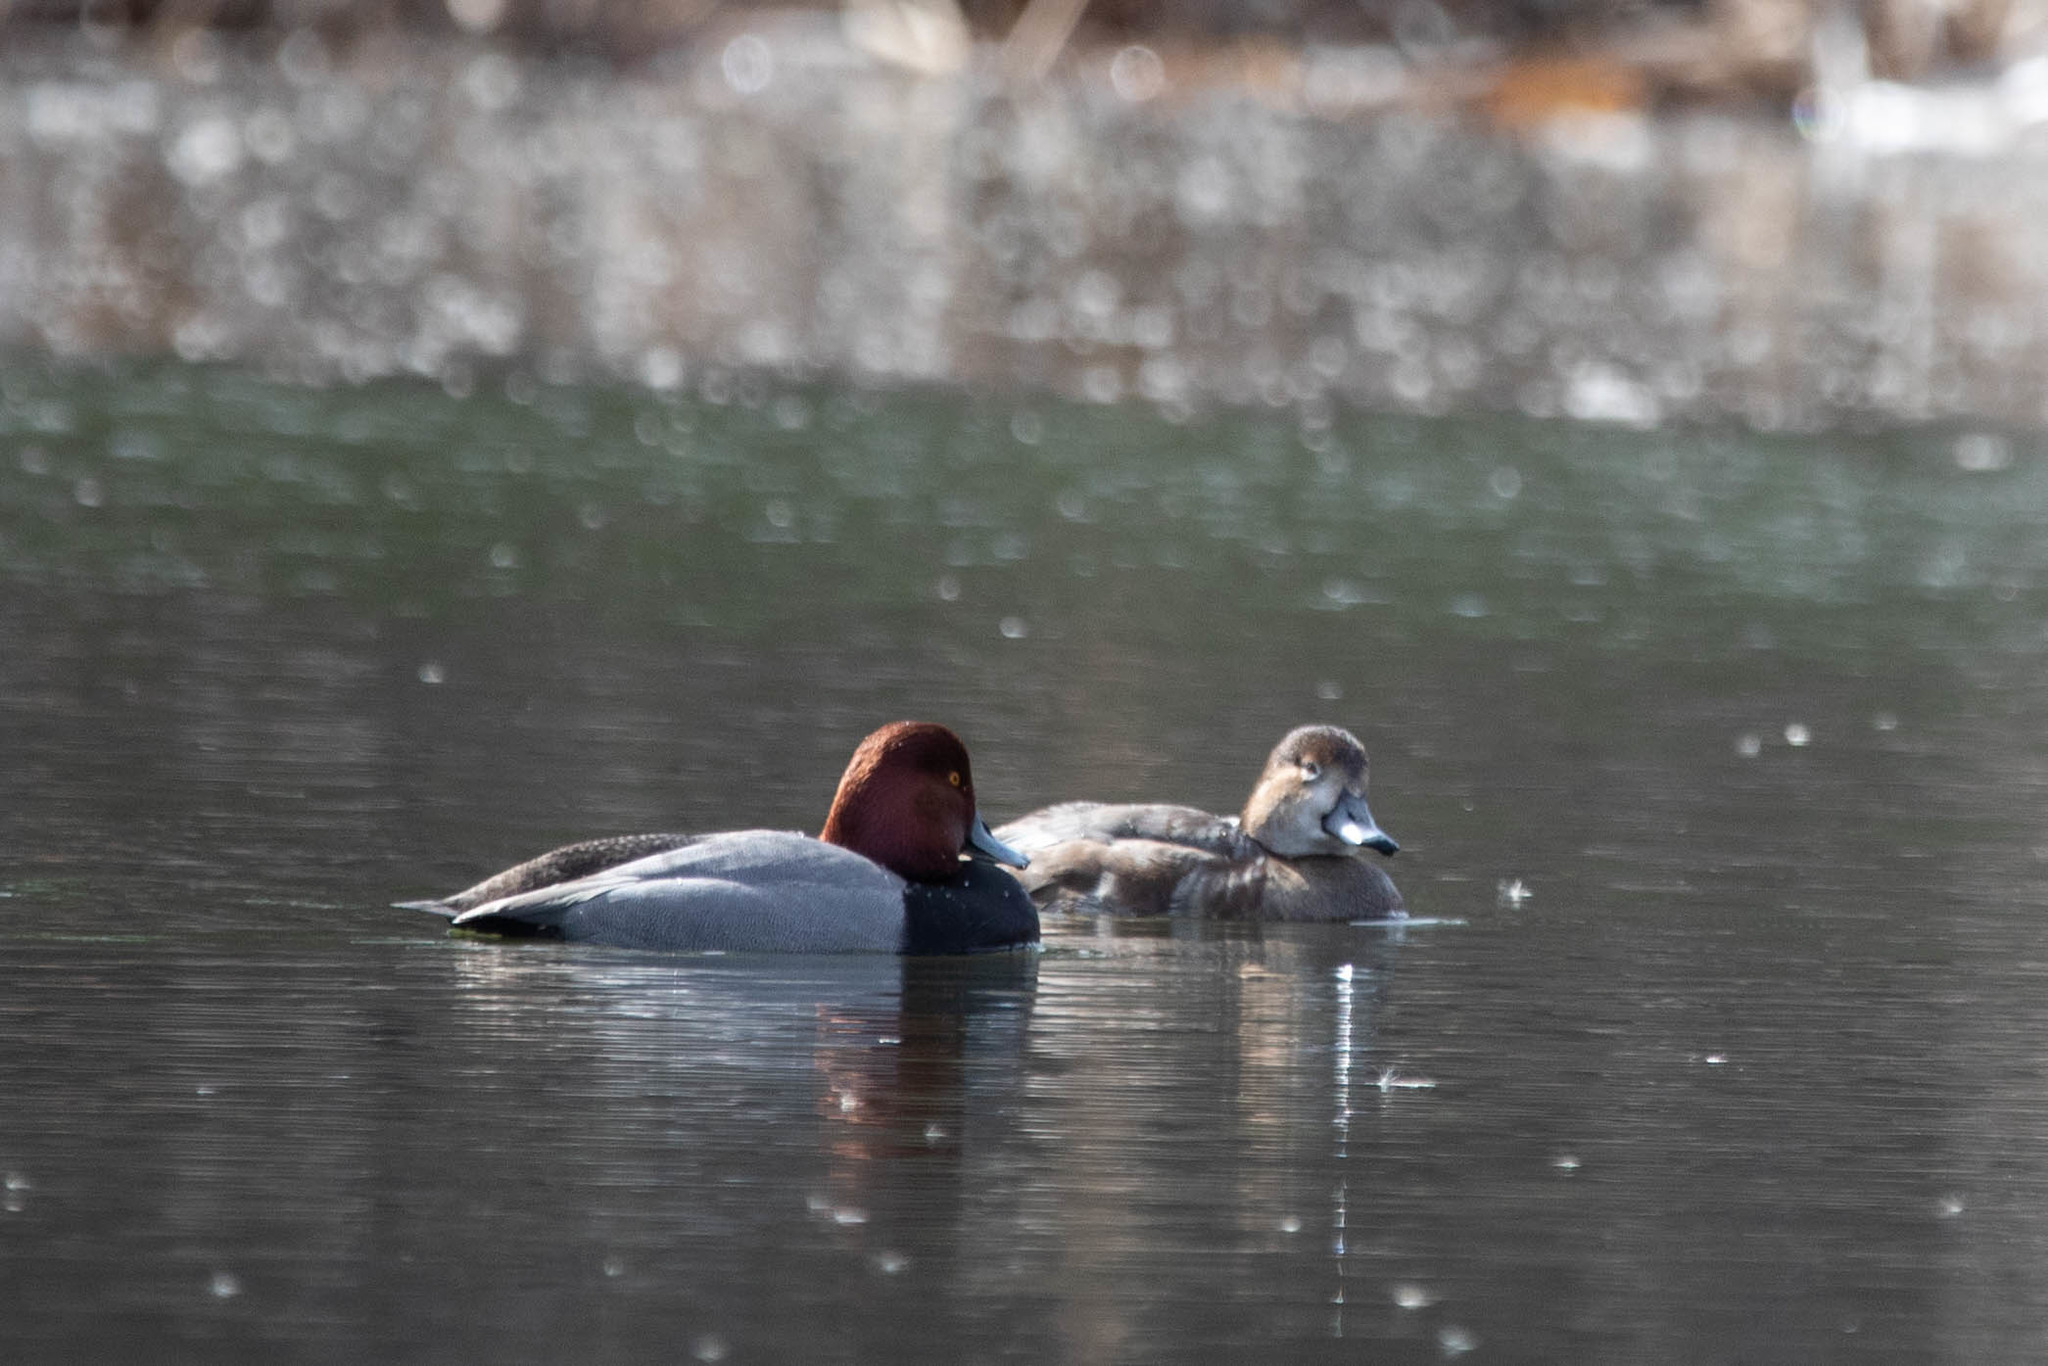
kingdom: Animalia
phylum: Chordata
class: Aves
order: Anseriformes
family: Anatidae
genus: Aythya
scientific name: Aythya americana
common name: Redhead
